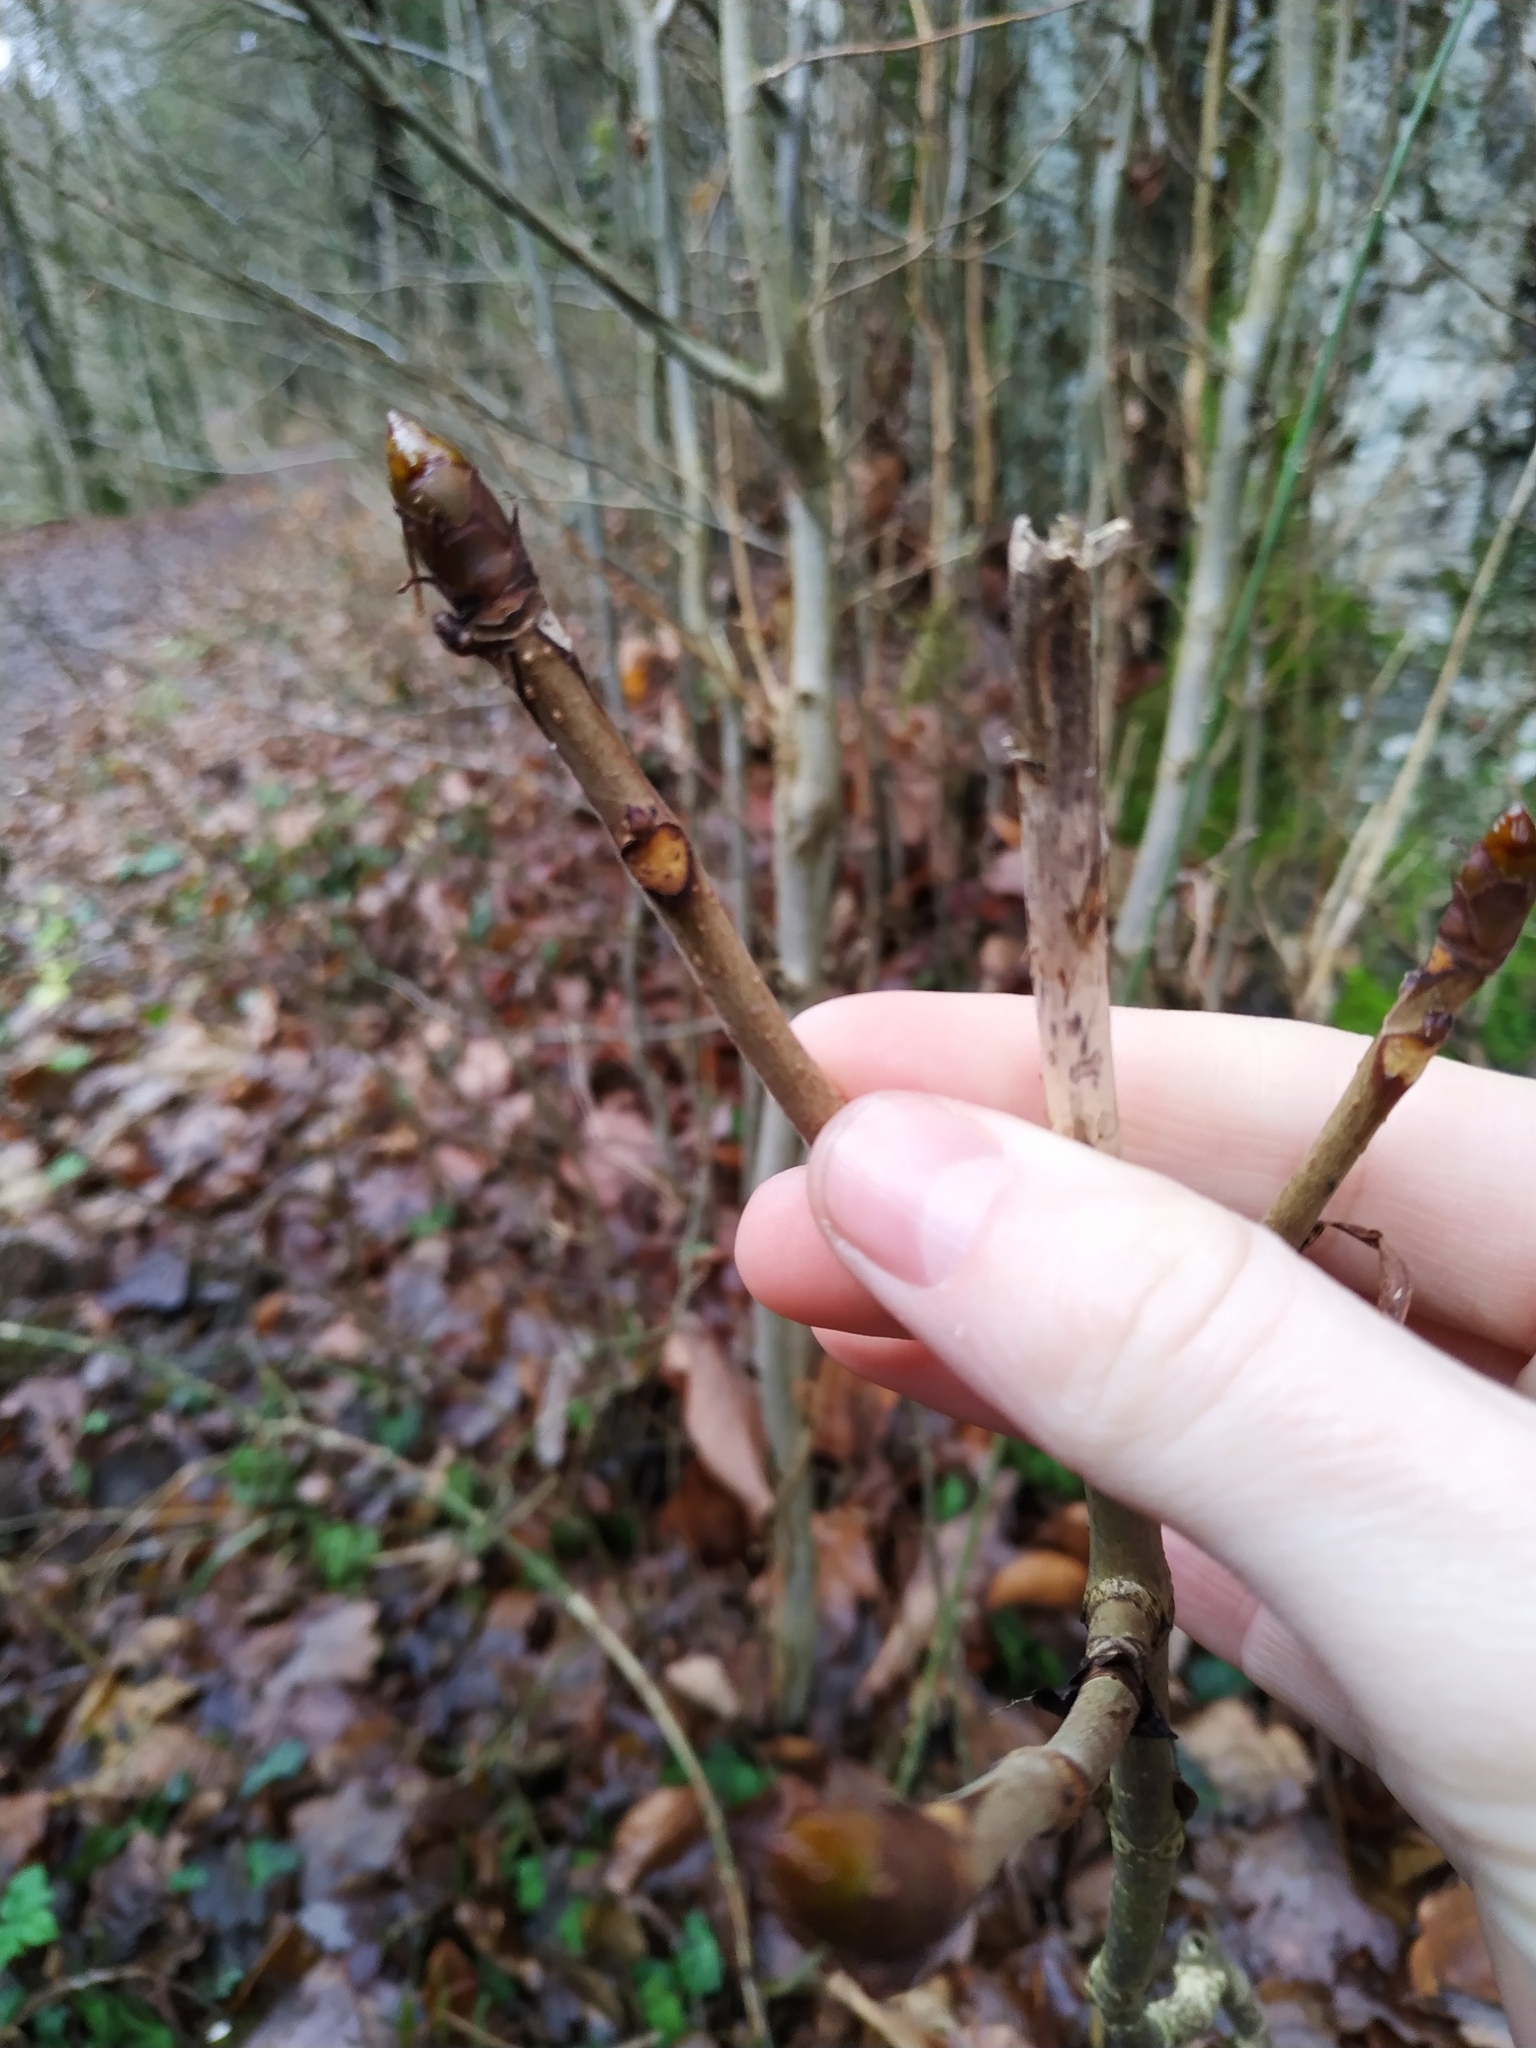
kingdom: Plantae
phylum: Tracheophyta
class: Magnoliopsida
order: Sapindales
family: Sapindaceae
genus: Aesculus
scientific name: Aesculus hippocastanum
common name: Horse-chestnut
